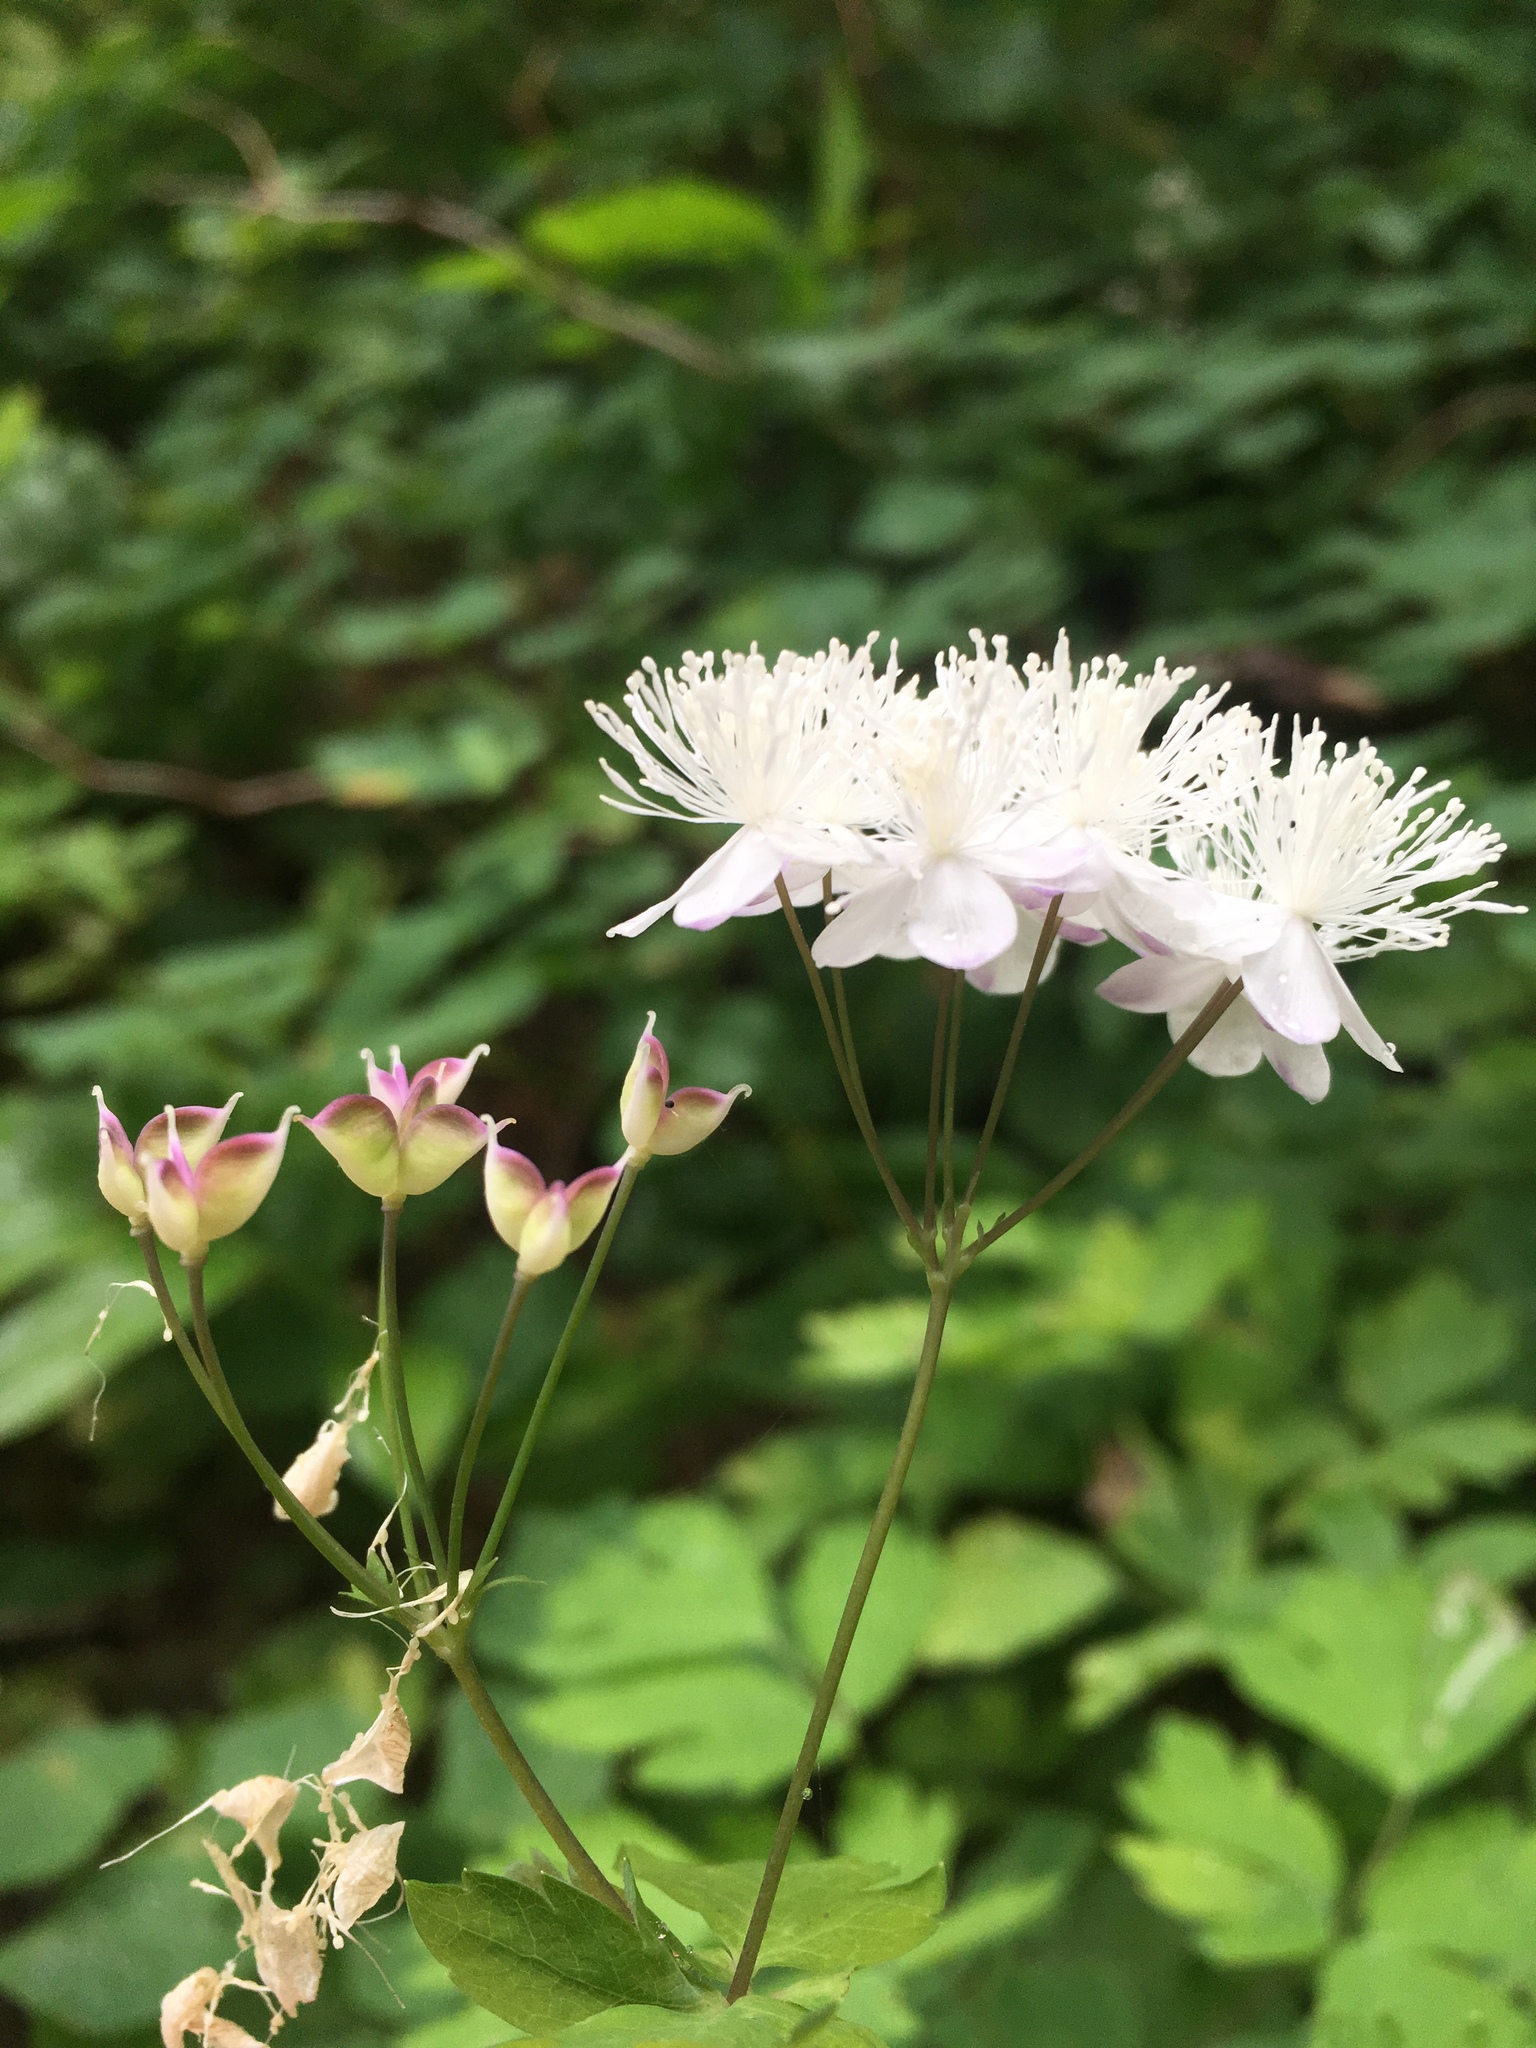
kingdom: Plantae
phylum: Tracheophyta
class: Magnoliopsida
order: Ranunculales
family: Ranunculaceae
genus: Enemion
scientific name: Enemion hallii
